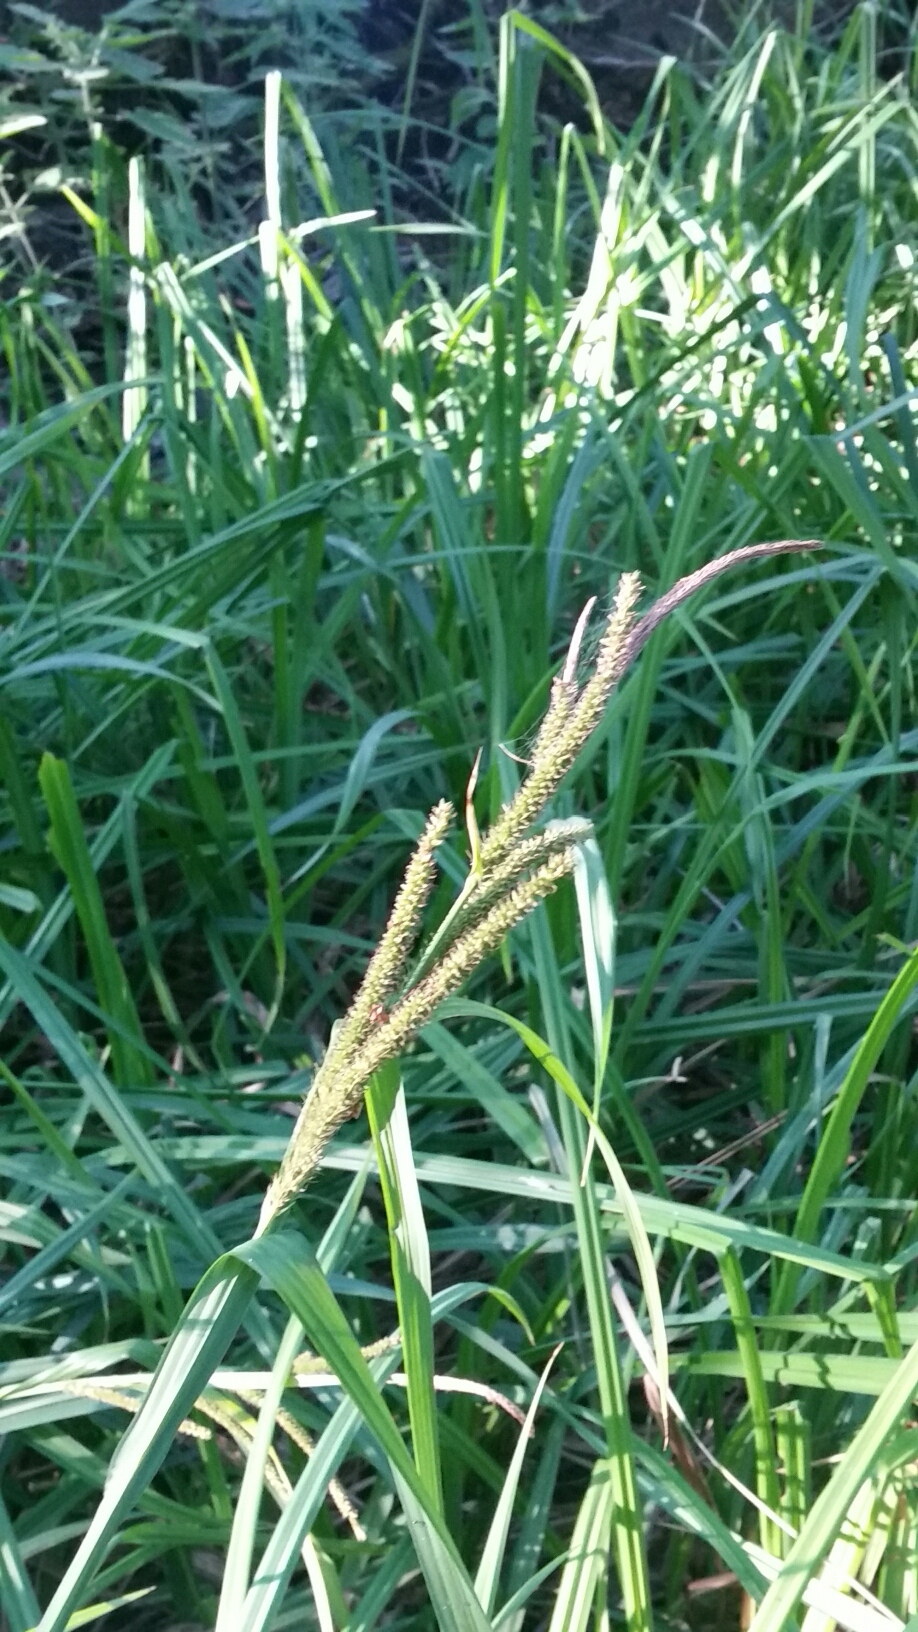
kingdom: Plantae
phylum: Tracheophyta
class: Liliopsida
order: Poales
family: Cyperaceae
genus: Carex
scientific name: Carex amplifolia
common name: Ample-leaved sedge
